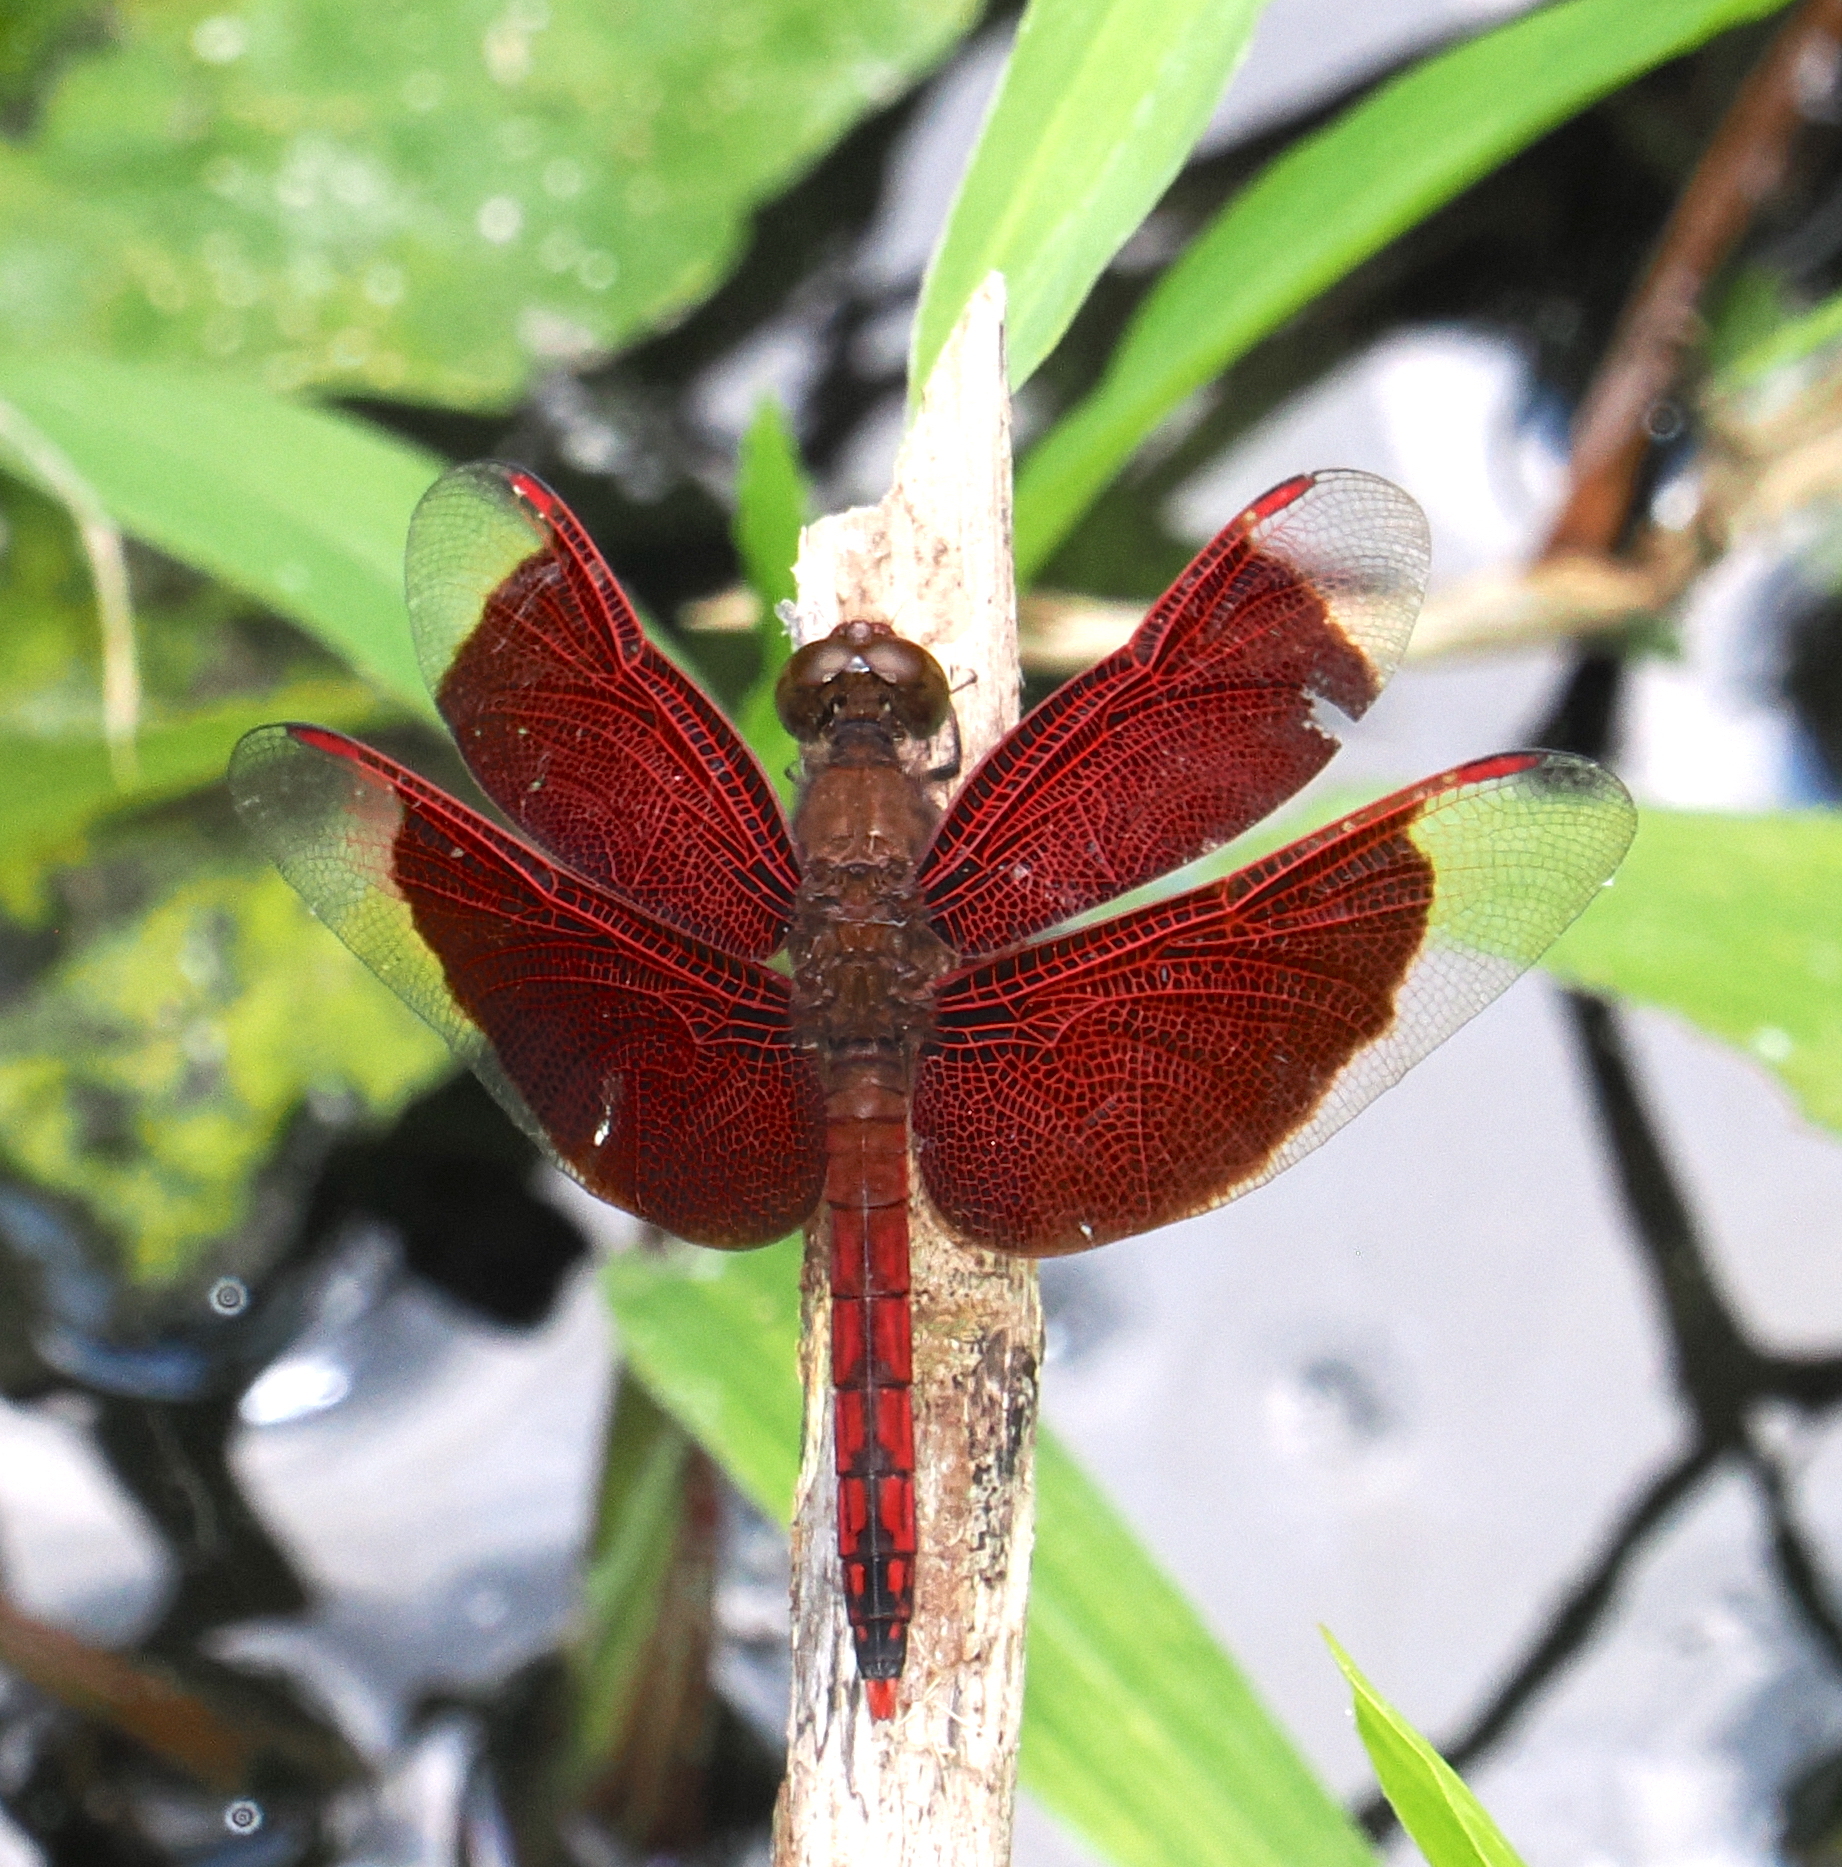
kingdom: Animalia
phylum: Arthropoda
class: Insecta
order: Odonata
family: Libellulidae
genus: Neurothemis
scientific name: Neurothemis ramburii
